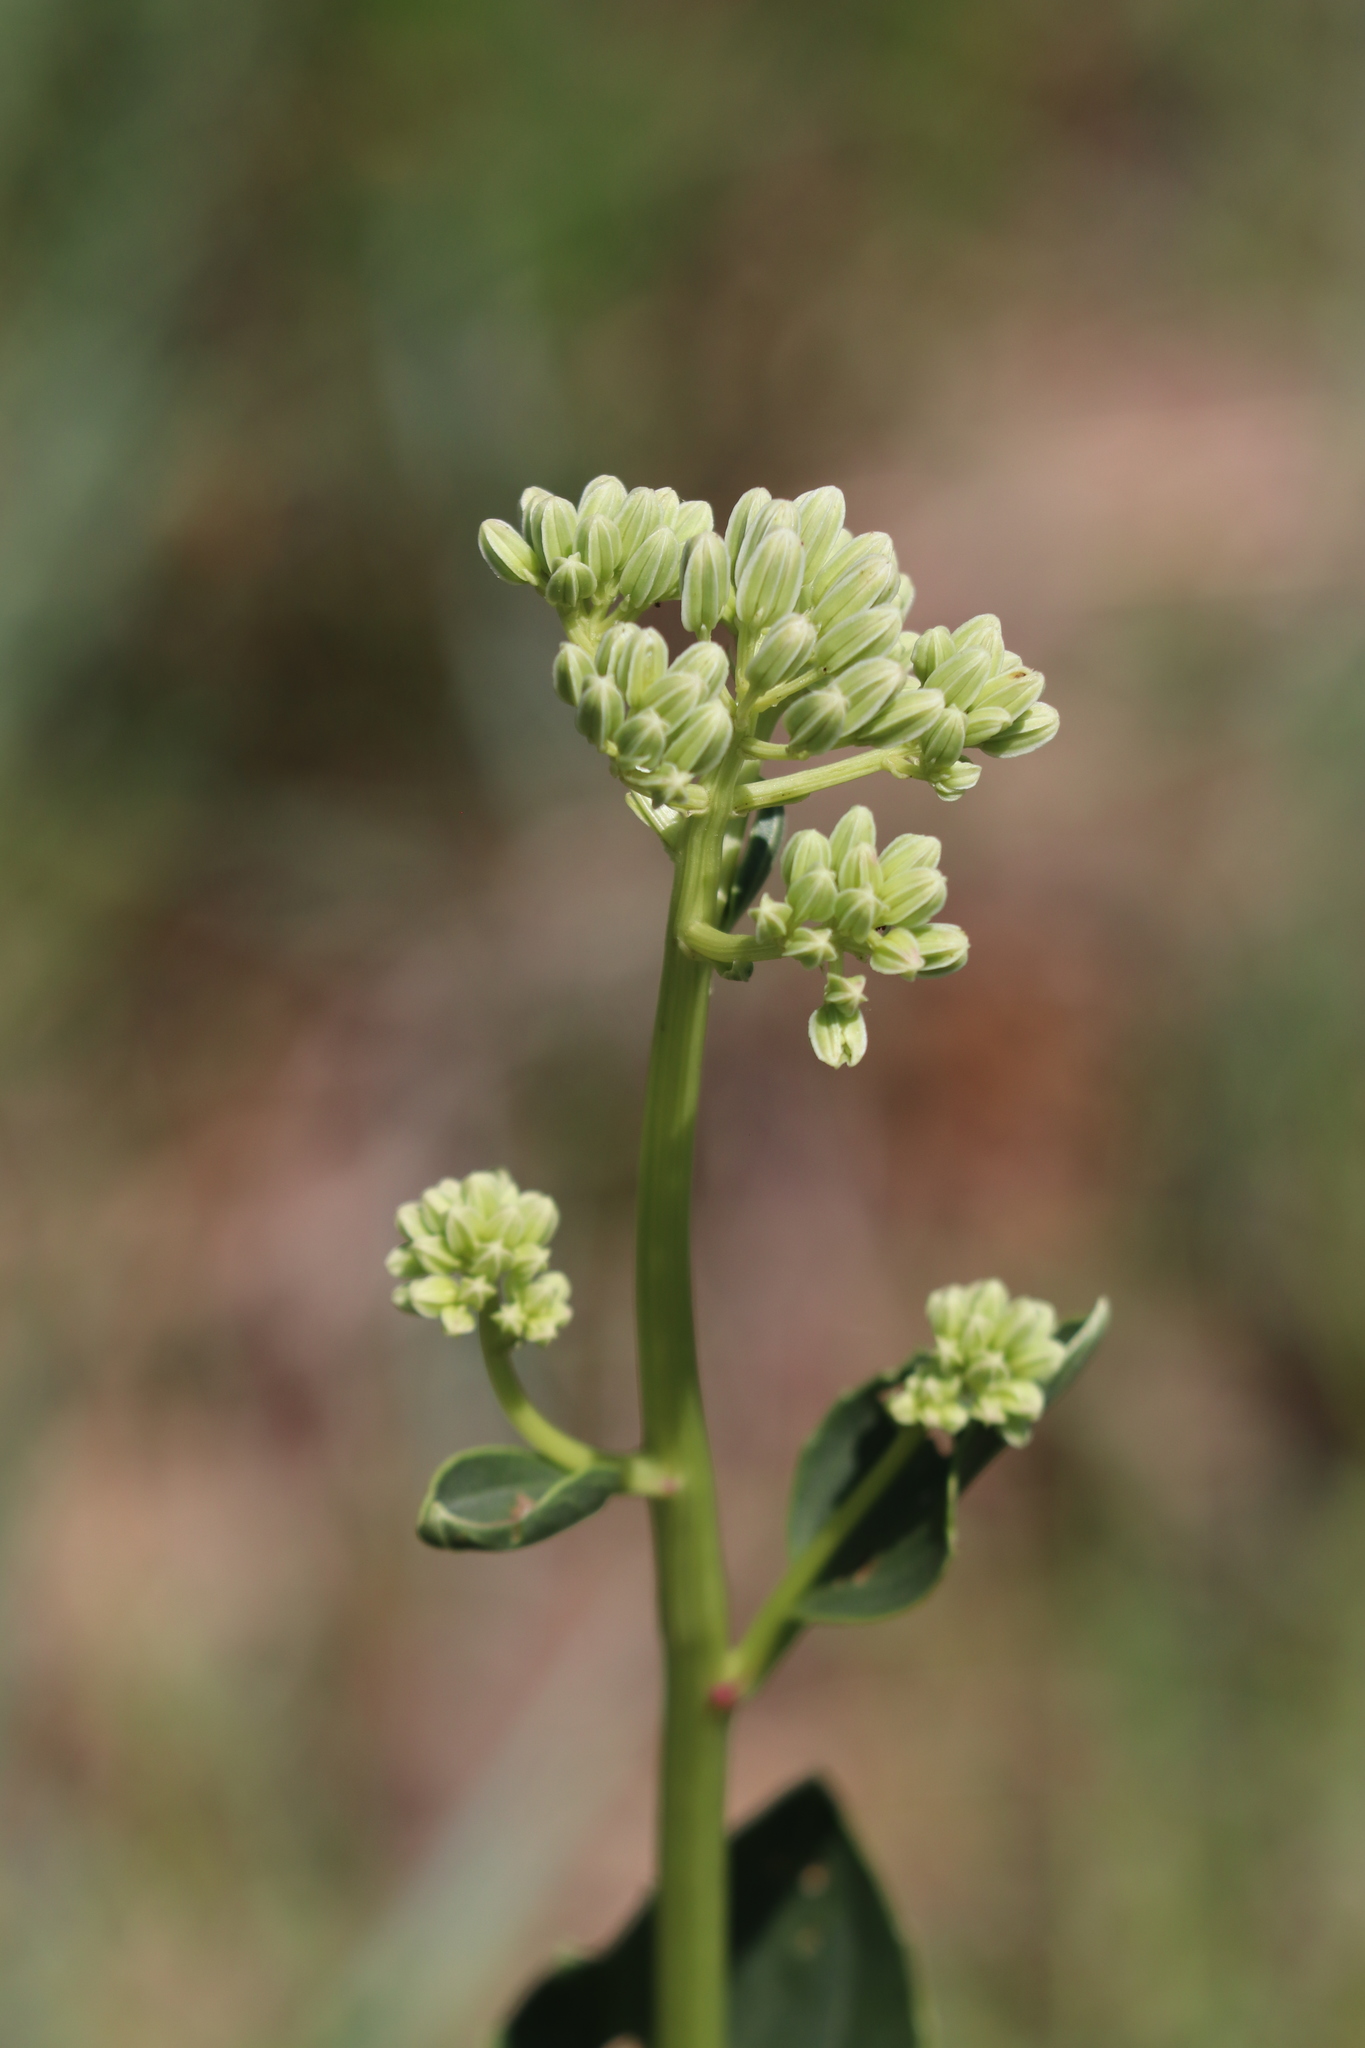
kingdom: Plantae
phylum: Tracheophyta
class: Magnoliopsida
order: Asterales
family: Asteraceae
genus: Arnoglossum
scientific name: Arnoglossum plantagineum
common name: Groove-stemmed indian-plantain
